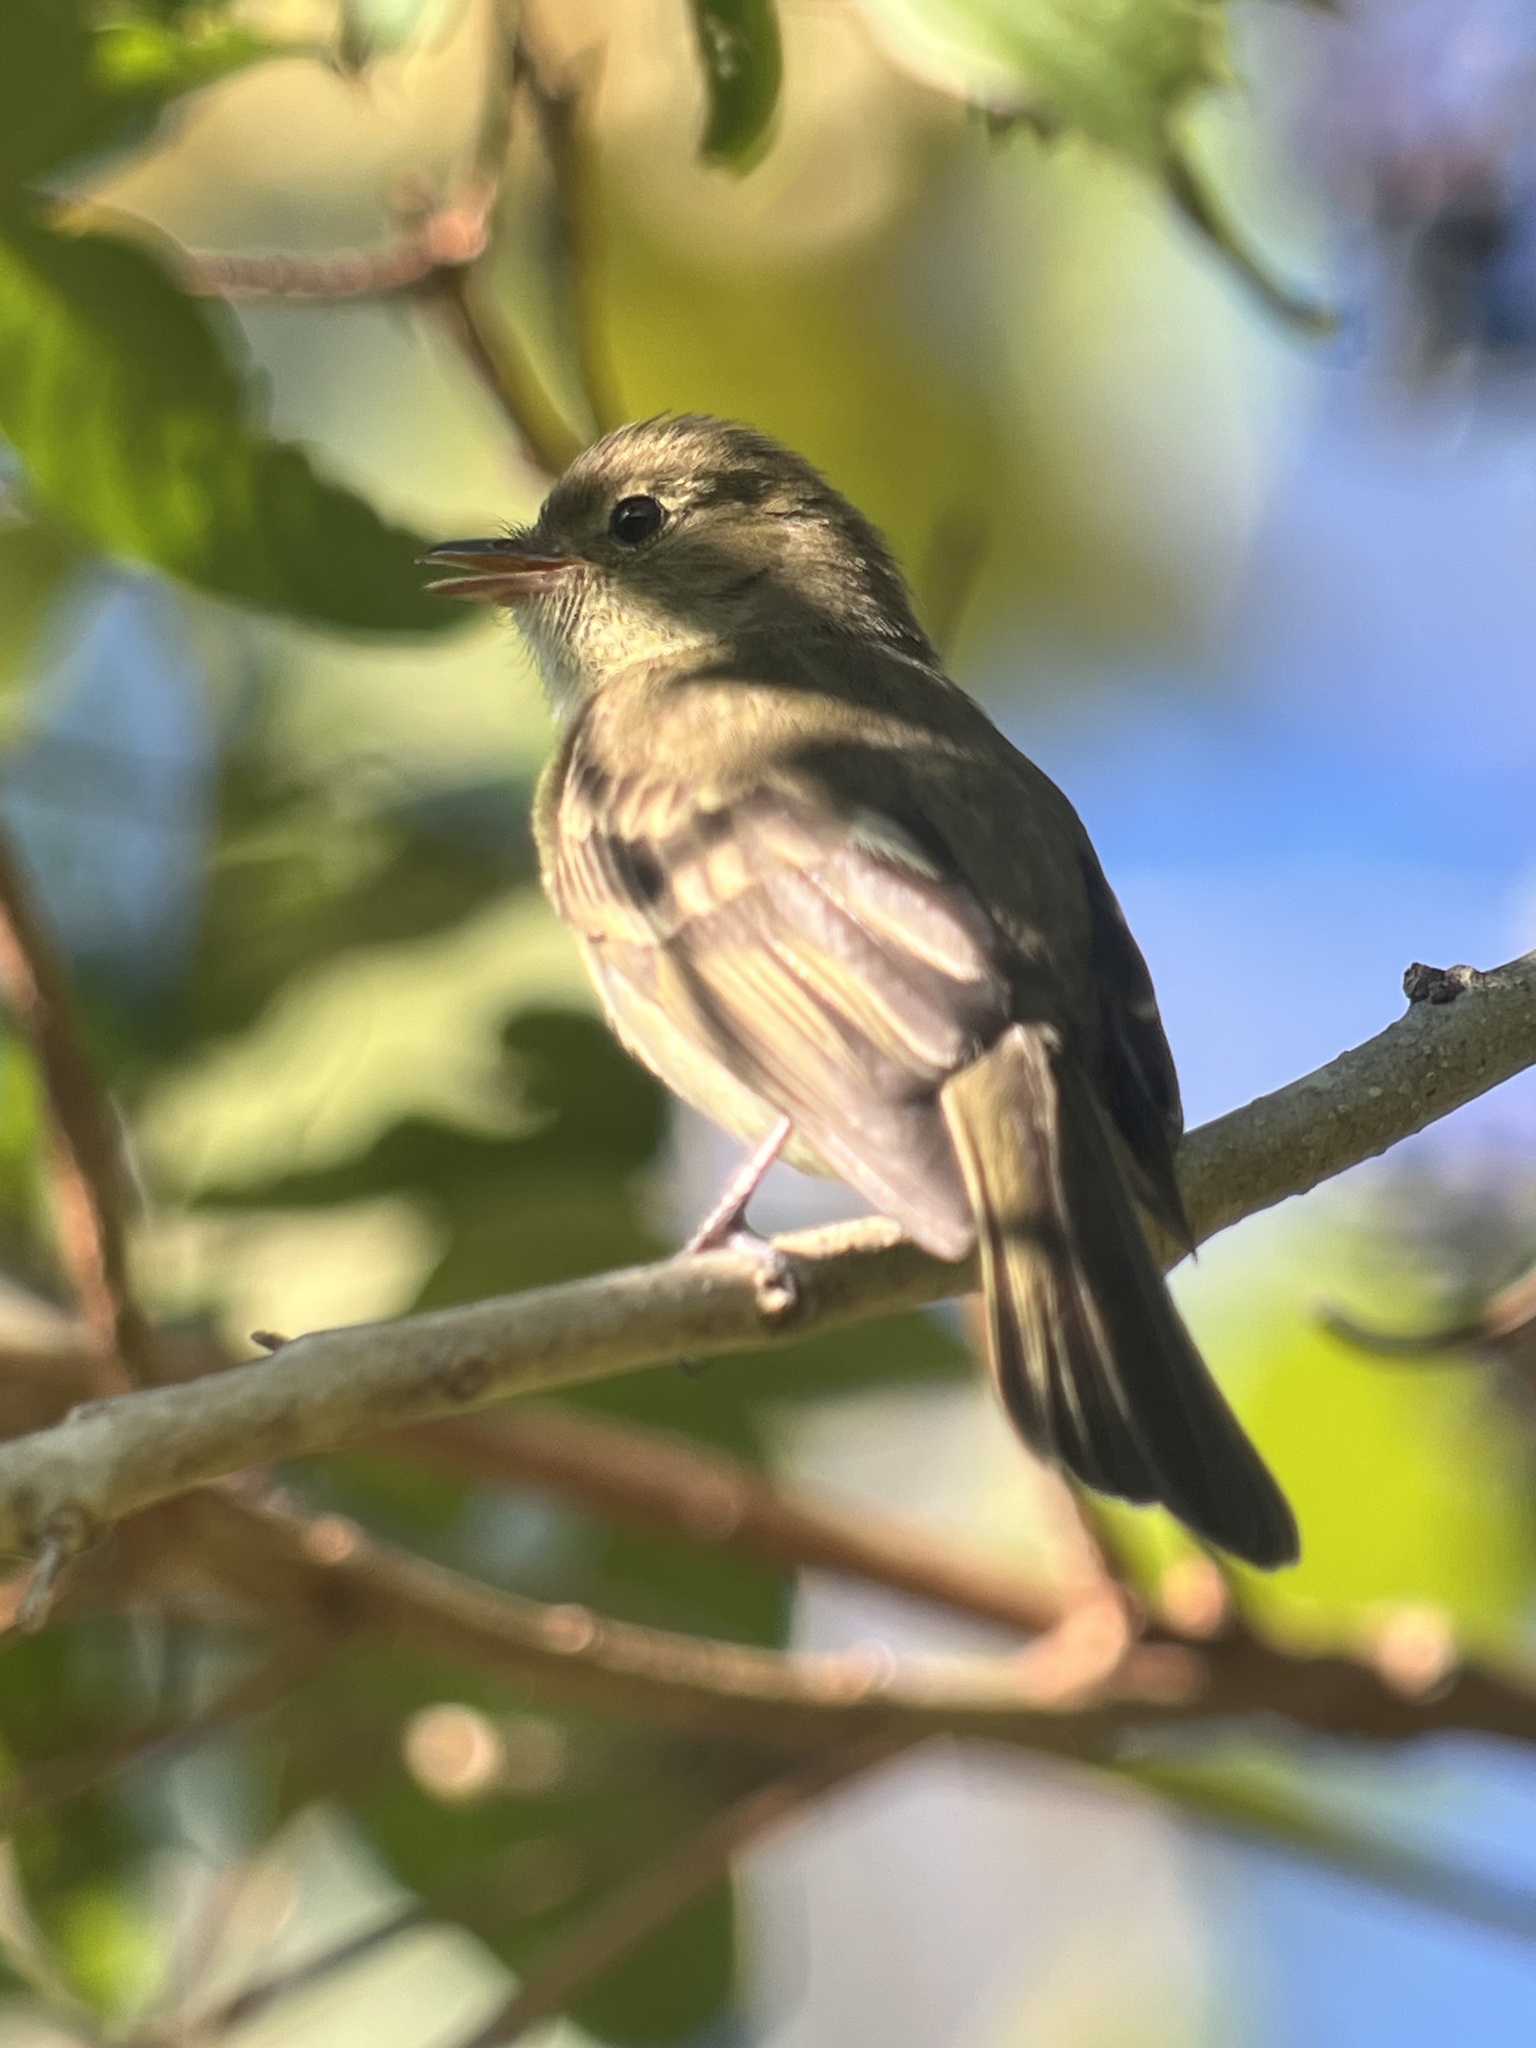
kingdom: Animalia
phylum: Chordata
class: Aves
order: Passeriformes
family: Tyrannidae
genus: Elaenia
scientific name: Elaenia frantzii
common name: Mountain elaenia
